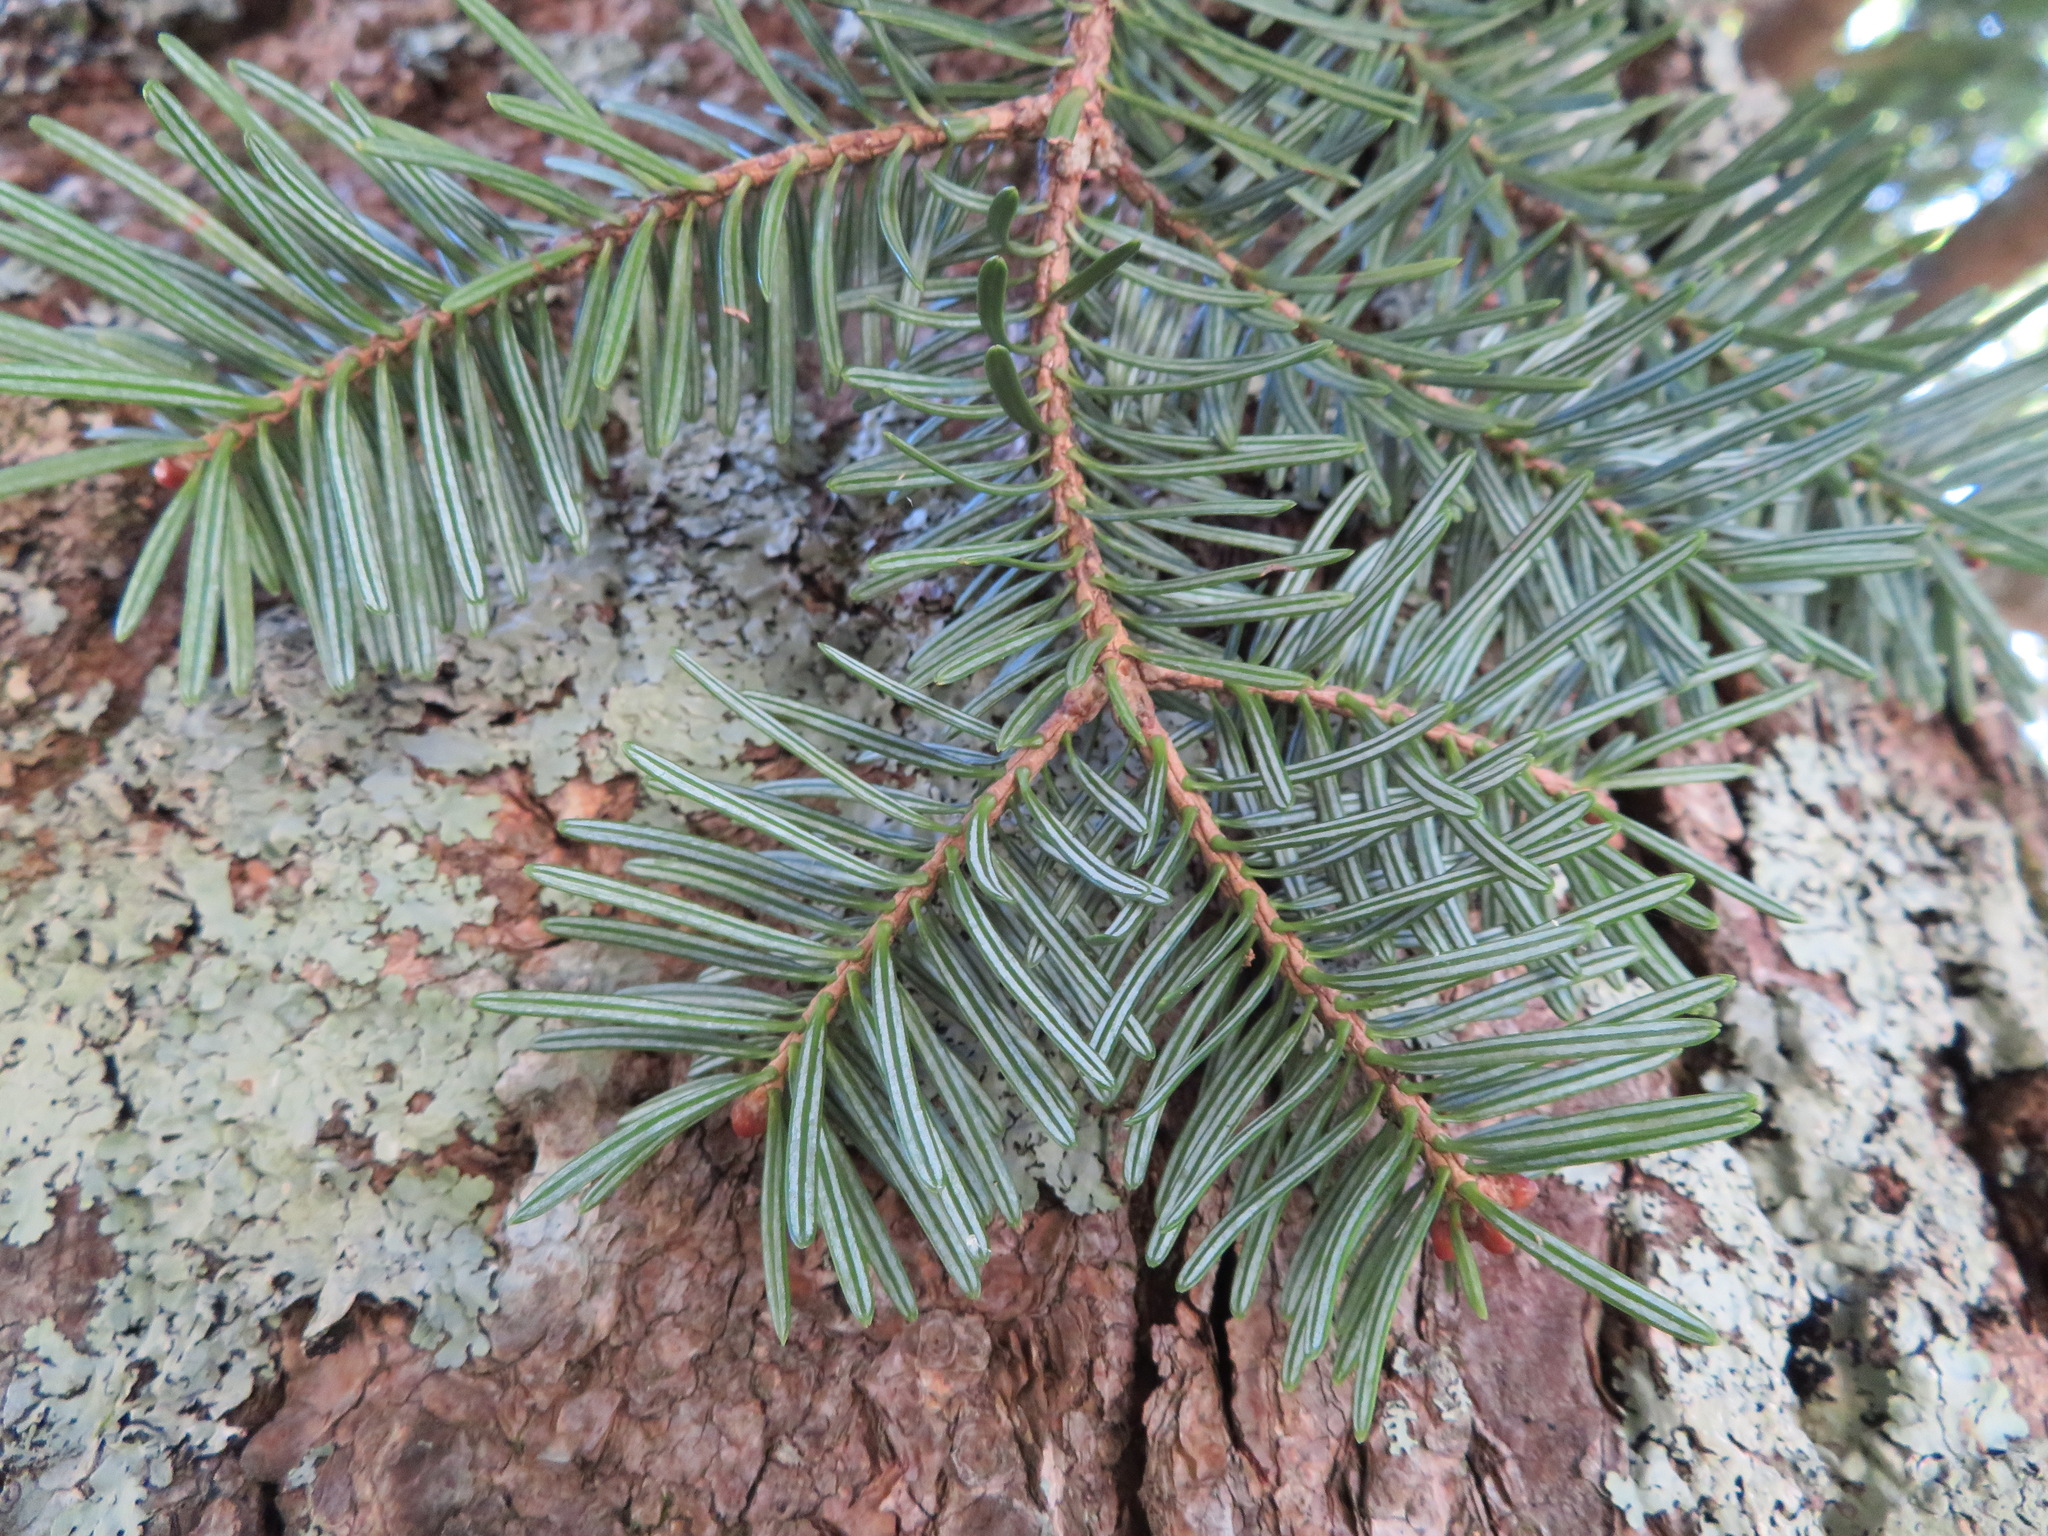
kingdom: Plantae
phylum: Tracheophyta
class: Pinopsida
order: Pinales
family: Pinaceae
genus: Abies
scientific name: Abies homolepis
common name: Nikko fir
